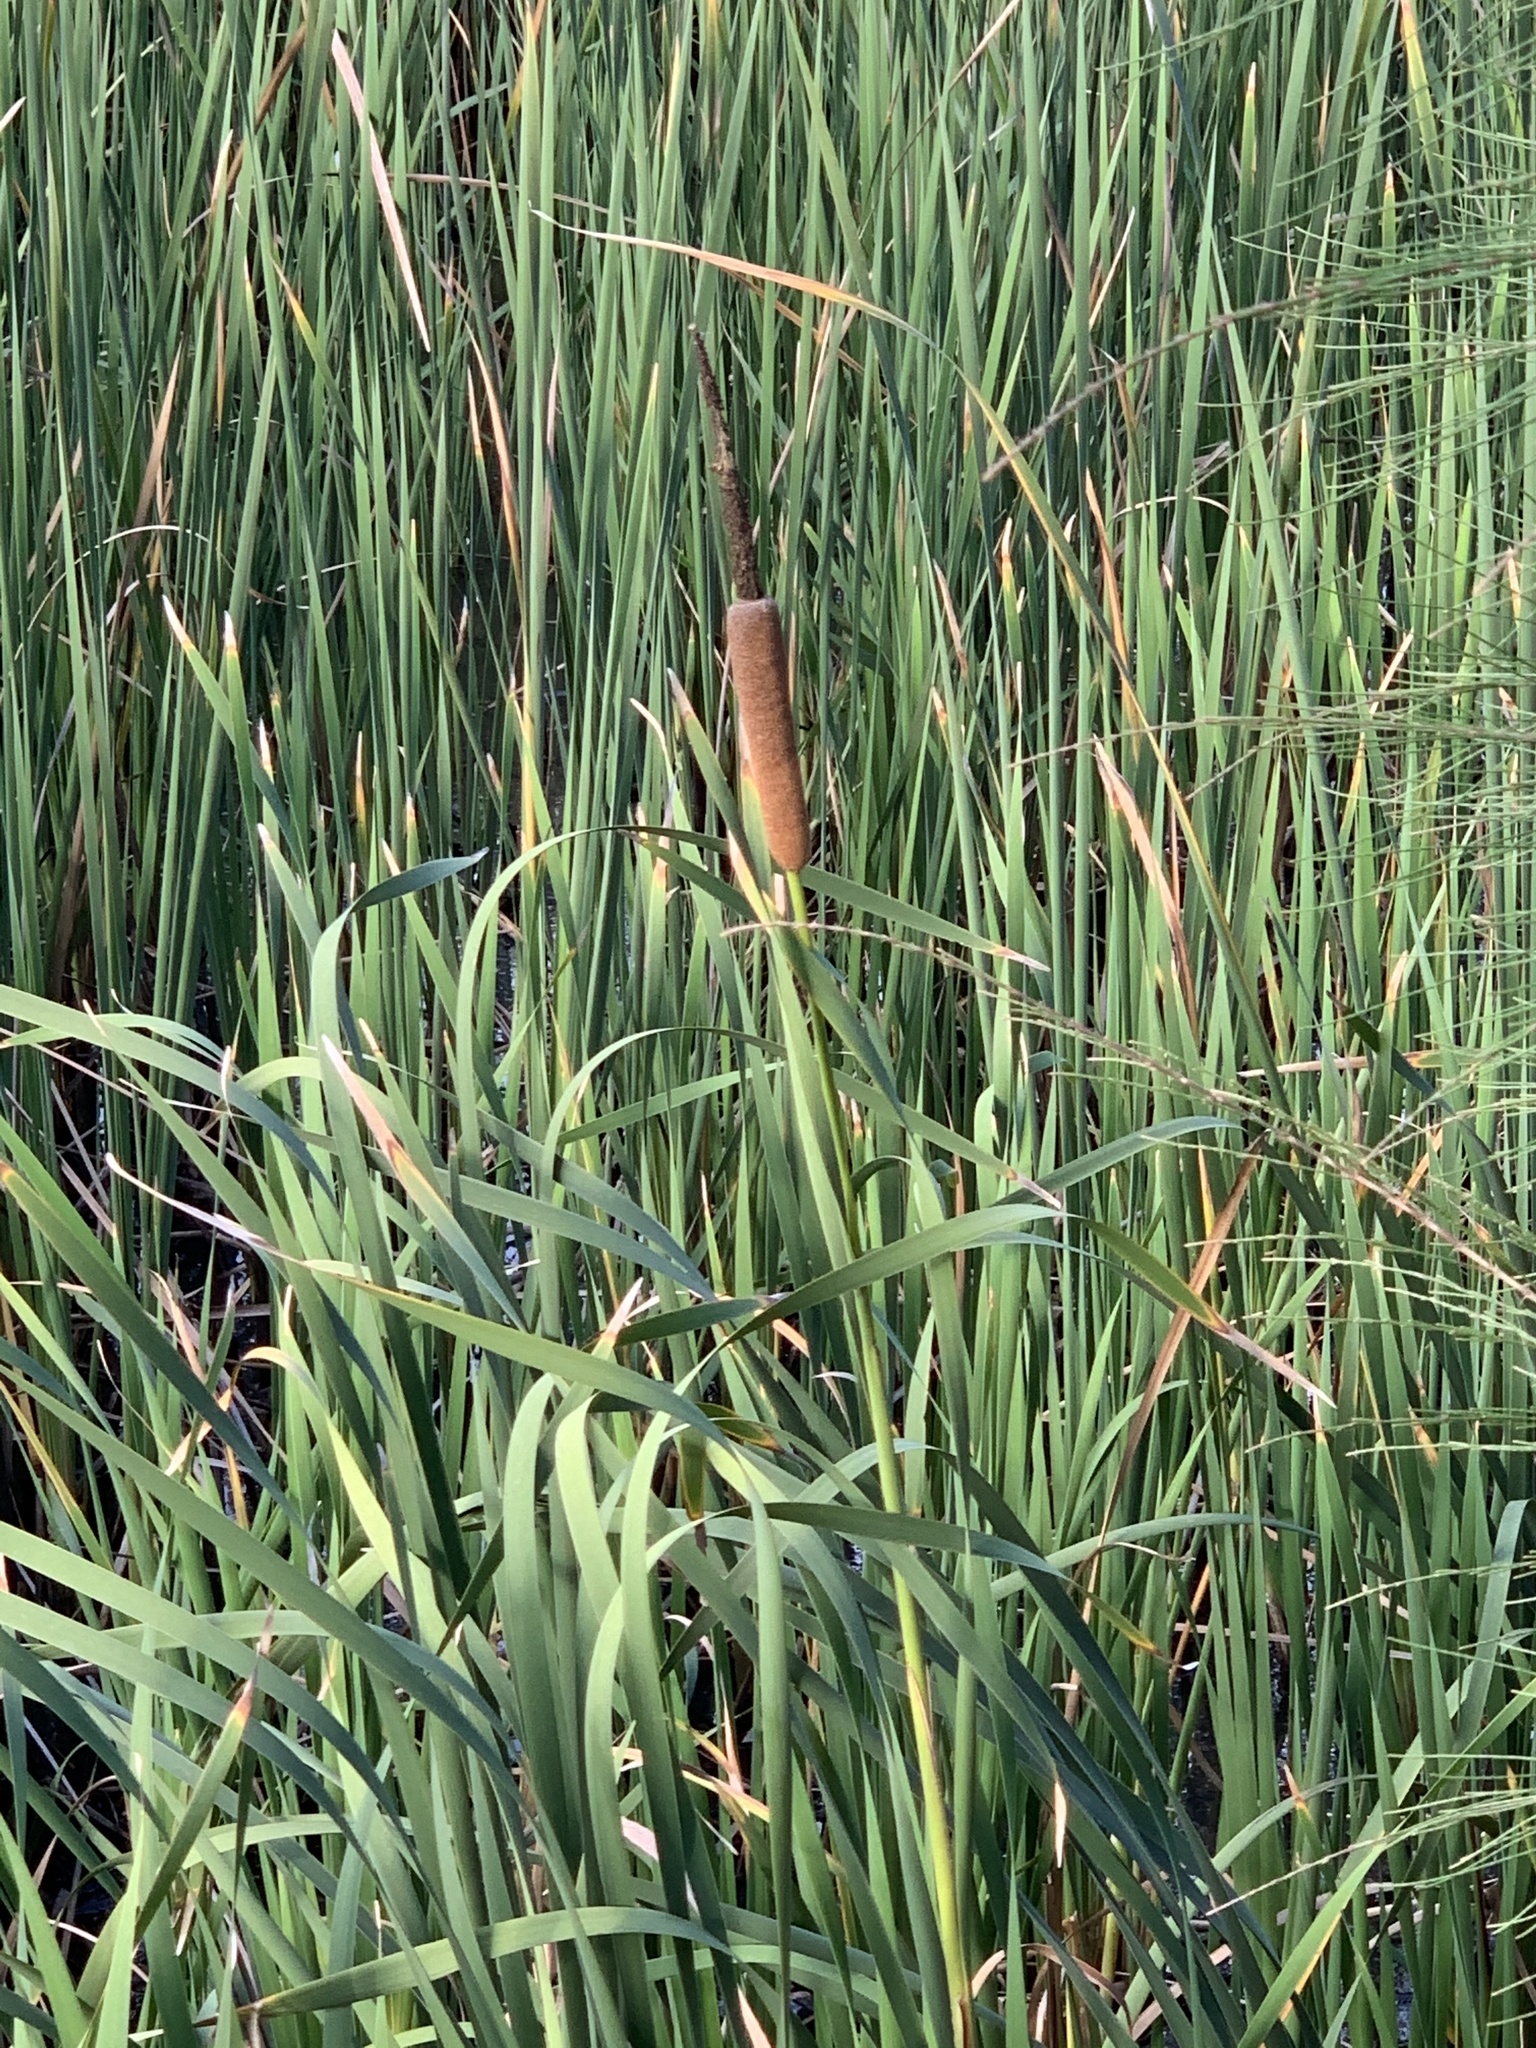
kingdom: Plantae
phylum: Tracheophyta
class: Liliopsida
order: Poales
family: Typhaceae
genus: Typha
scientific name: Typha capensis
